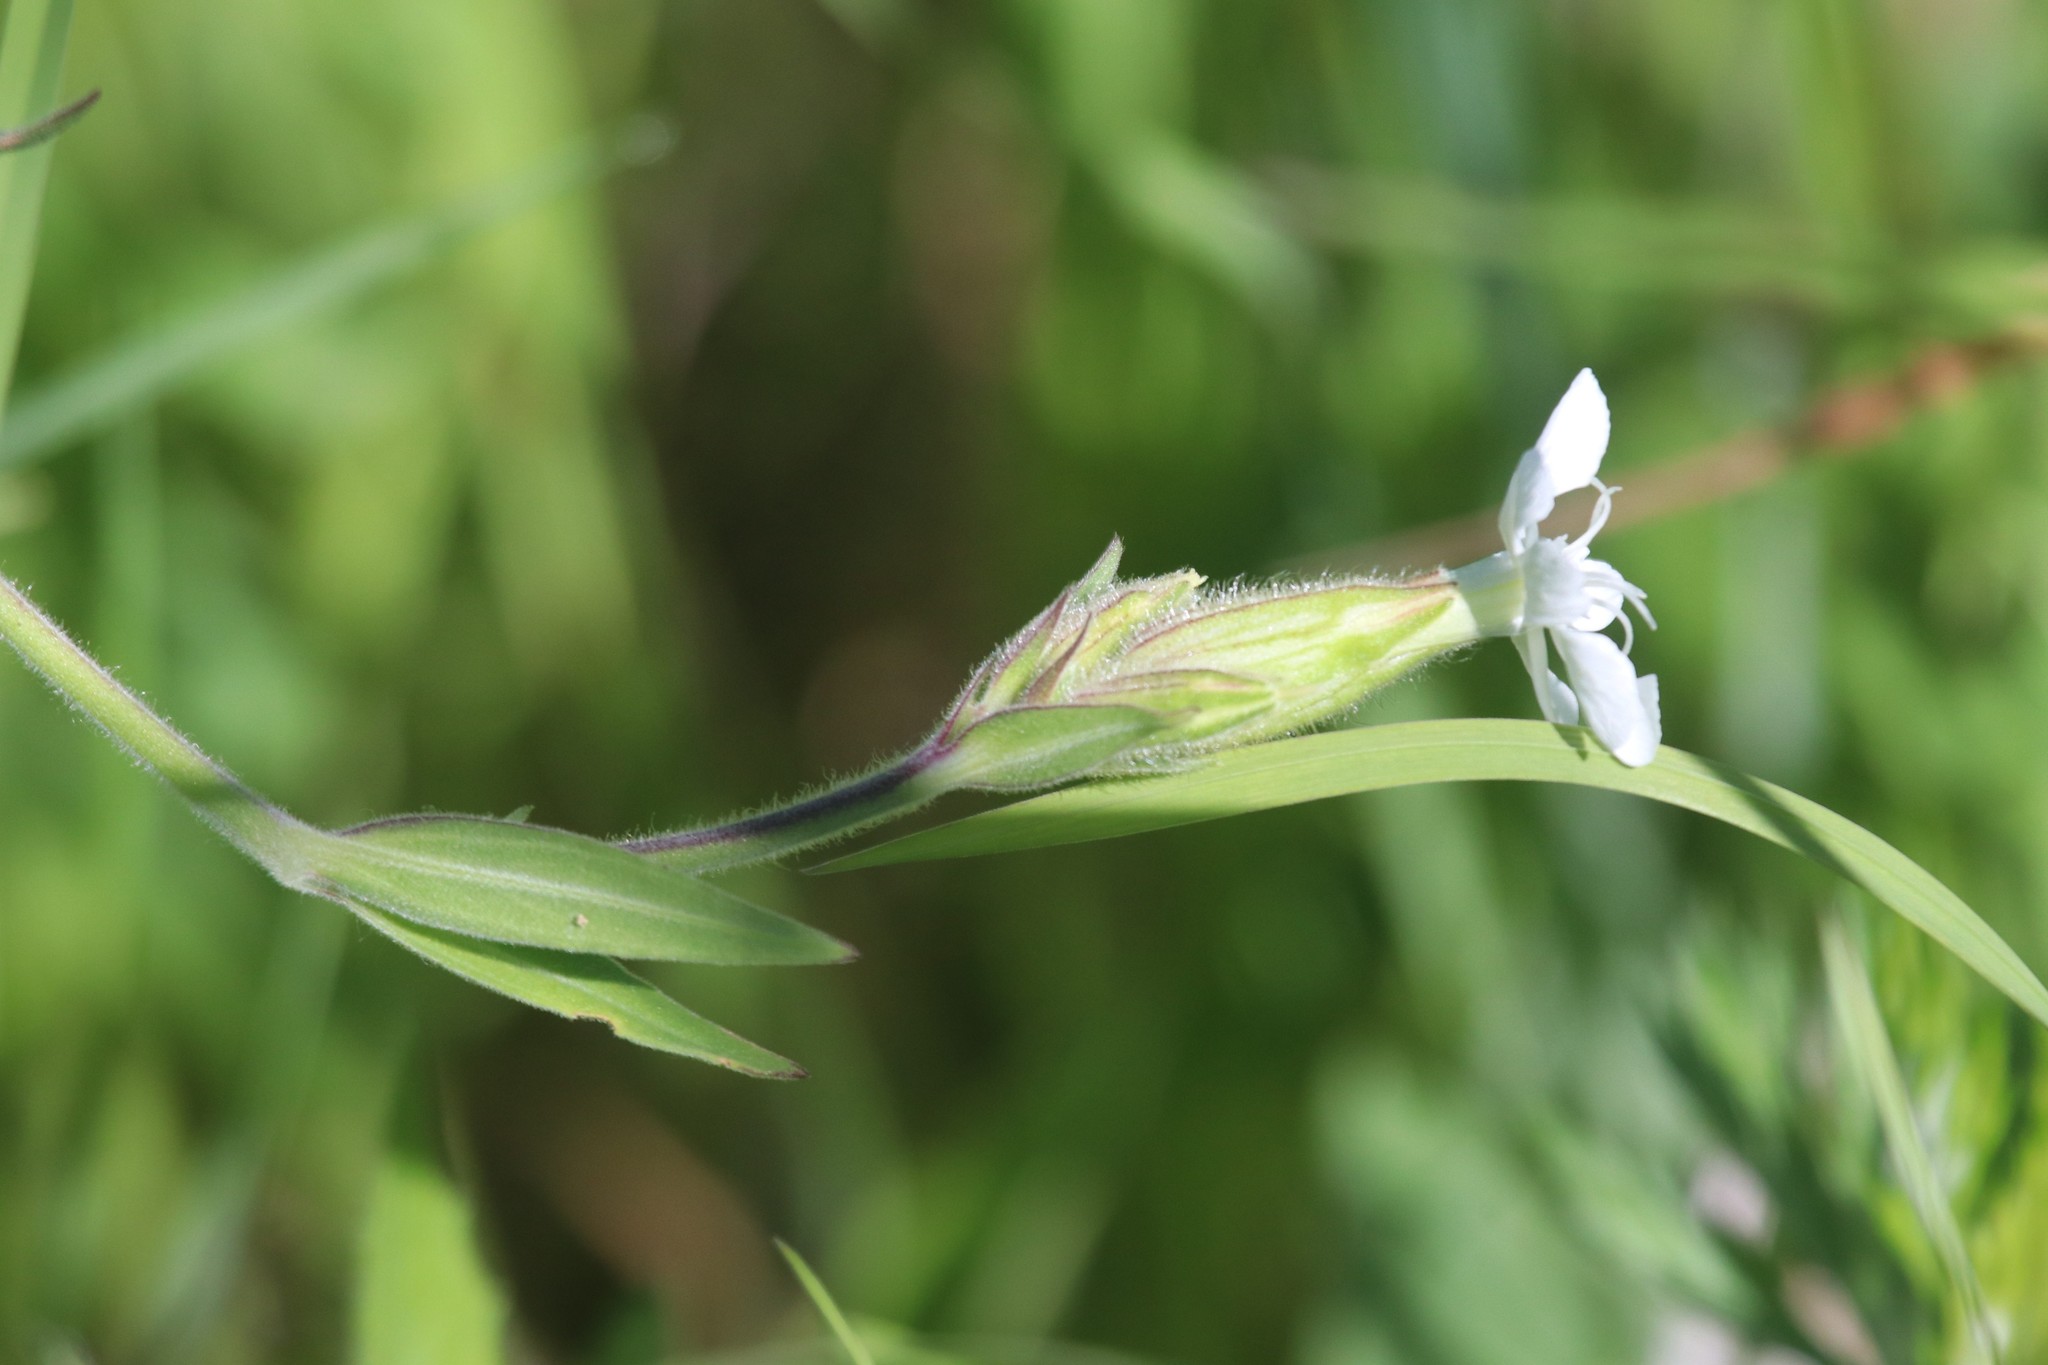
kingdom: Plantae
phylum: Tracheophyta
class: Magnoliopsida
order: Caryophyllales
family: Caryophyllaceae
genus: Silene
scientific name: Silene latifolia
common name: White campion
